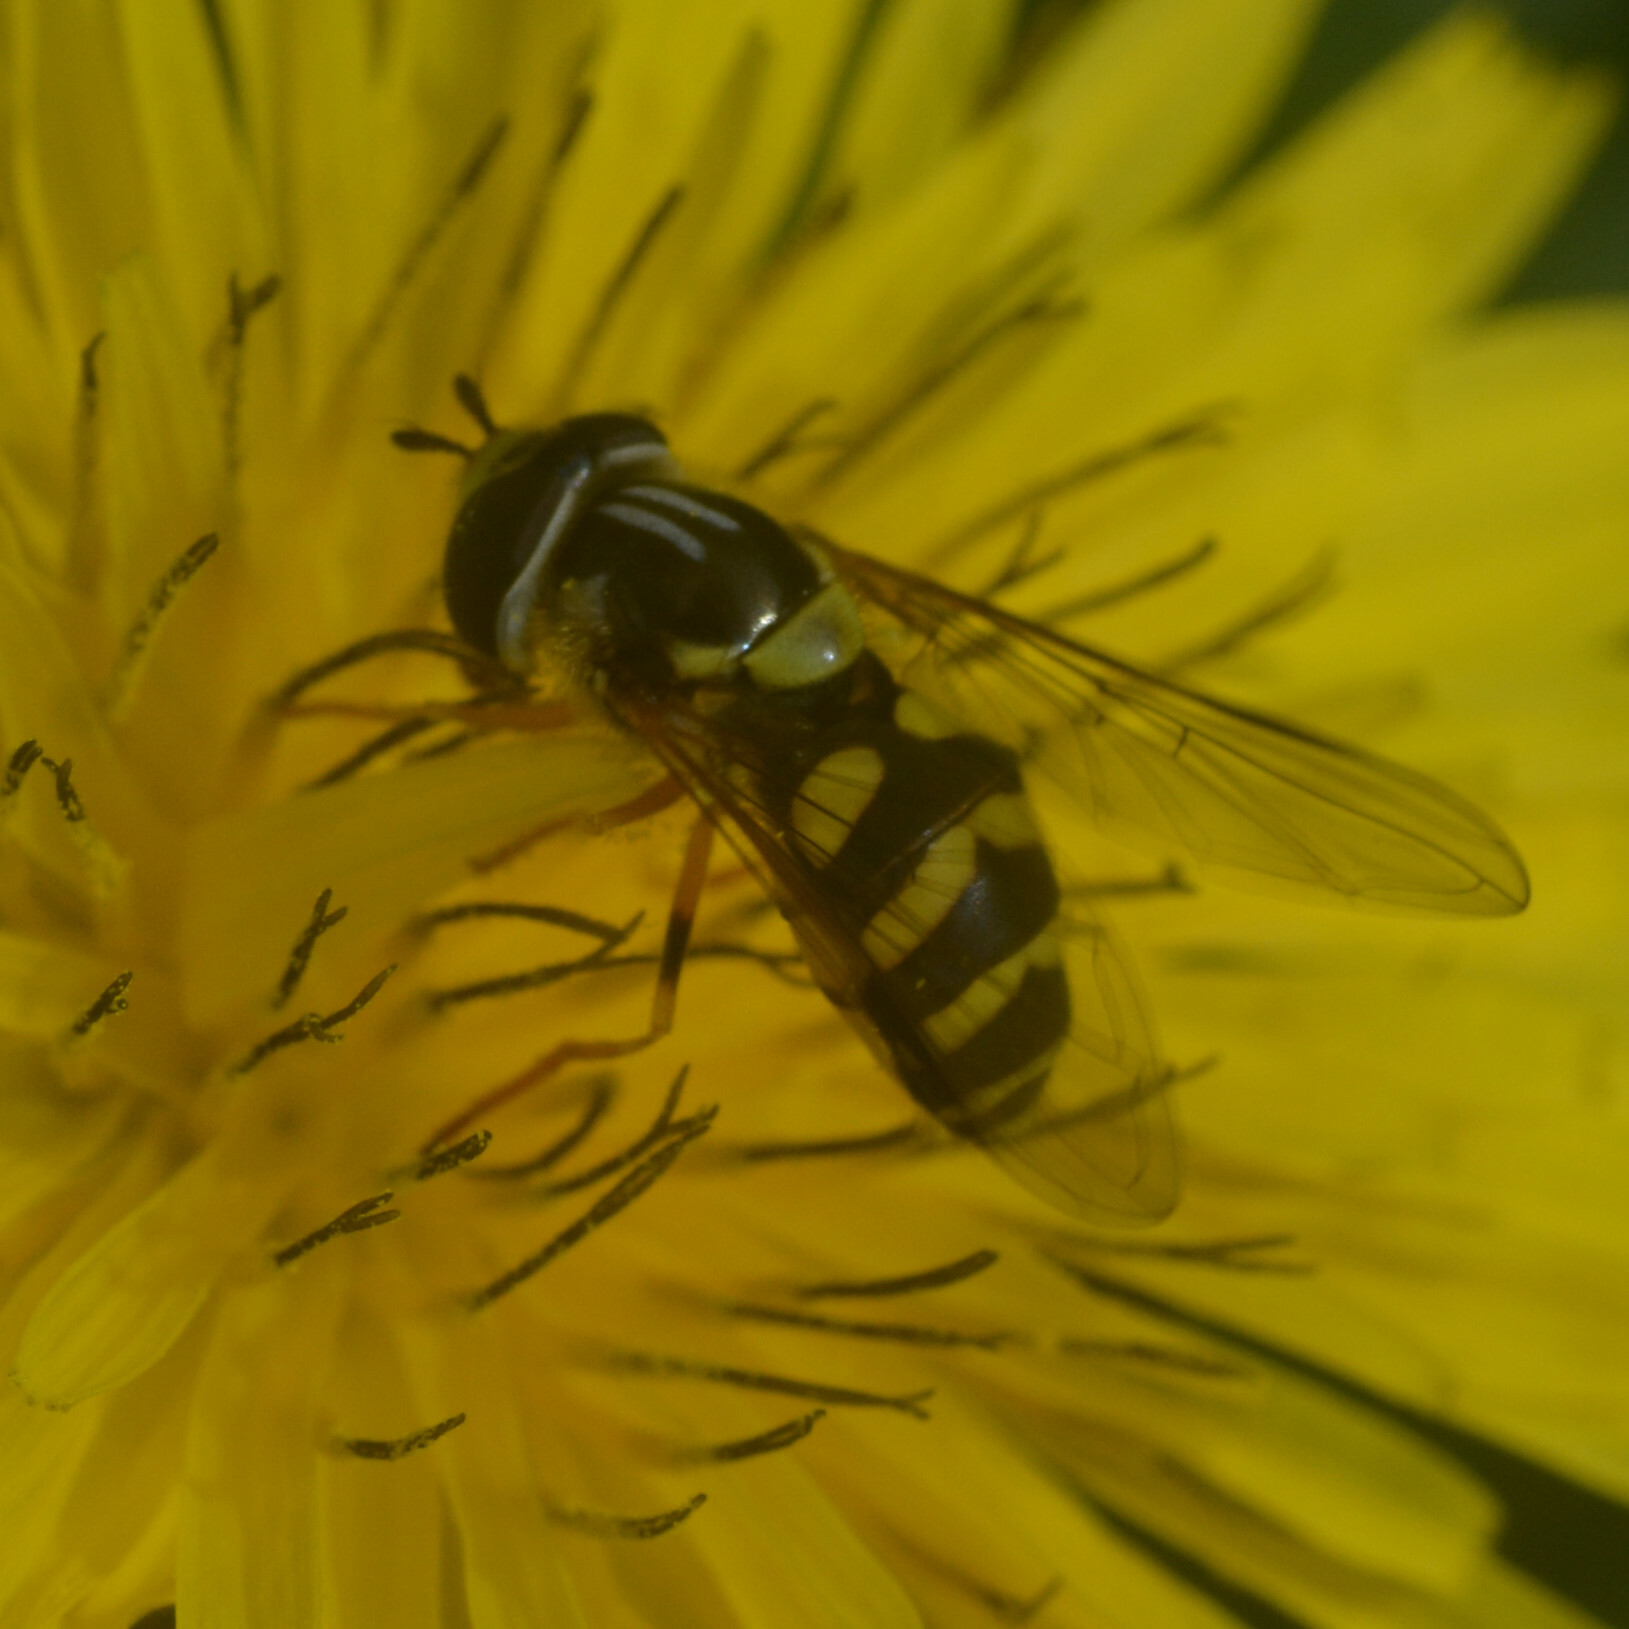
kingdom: Animalia
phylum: Arthropoda
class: Insecta
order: Diptera
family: Syrphidae
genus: Dasysyrphus
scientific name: Dasysyrphus albostriatus
